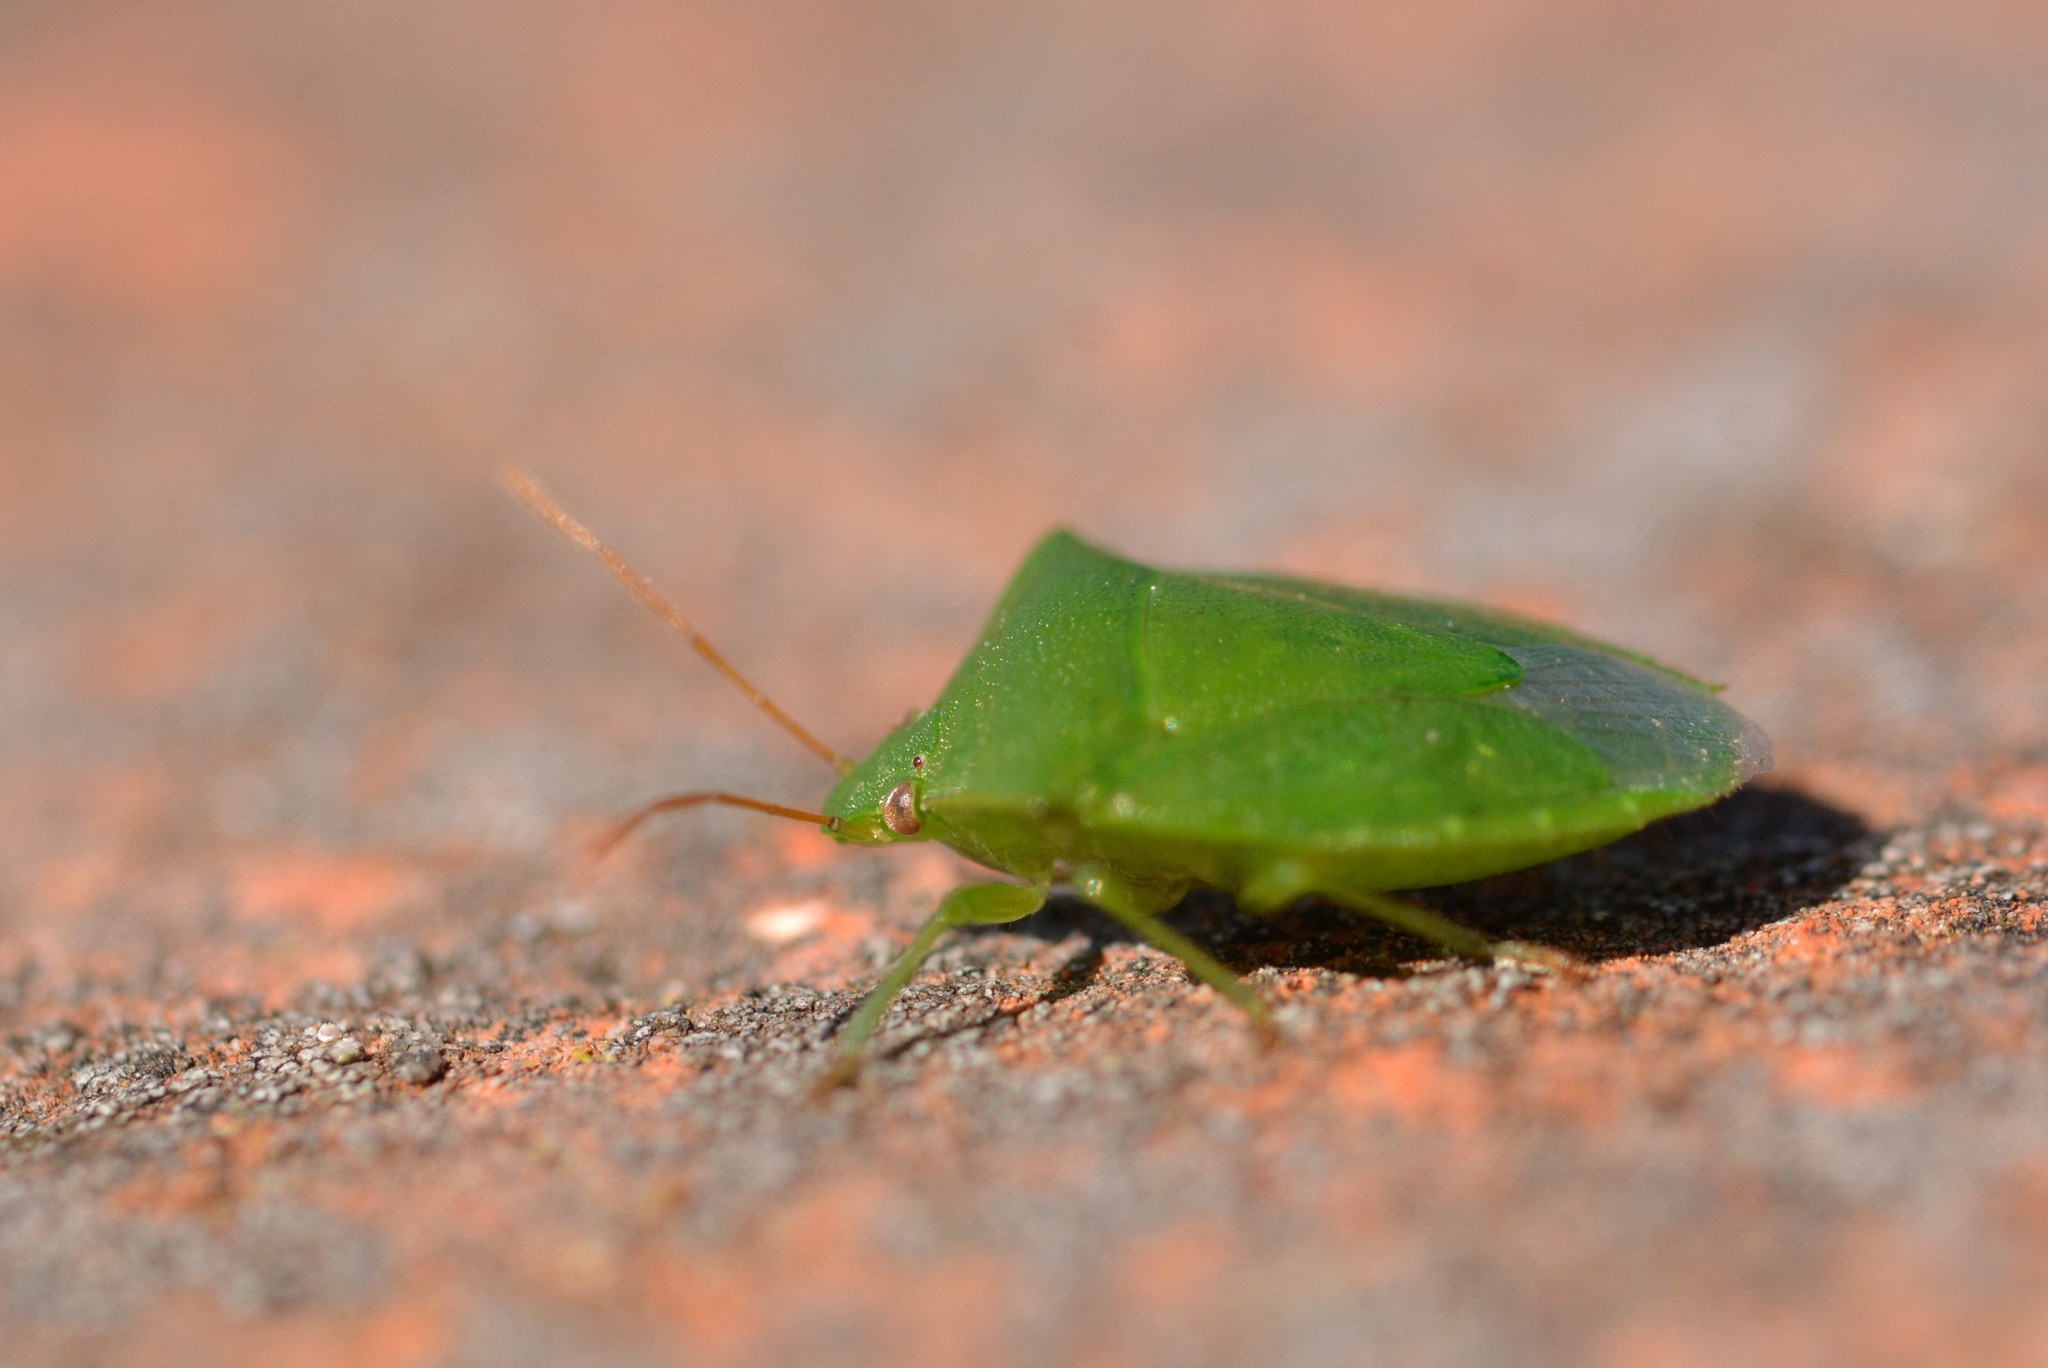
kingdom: Animalia
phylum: Arthropoda
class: Insecta
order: Hemiptera
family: Pentatomidae
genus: Glaucias
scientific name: Glaucias amyota
